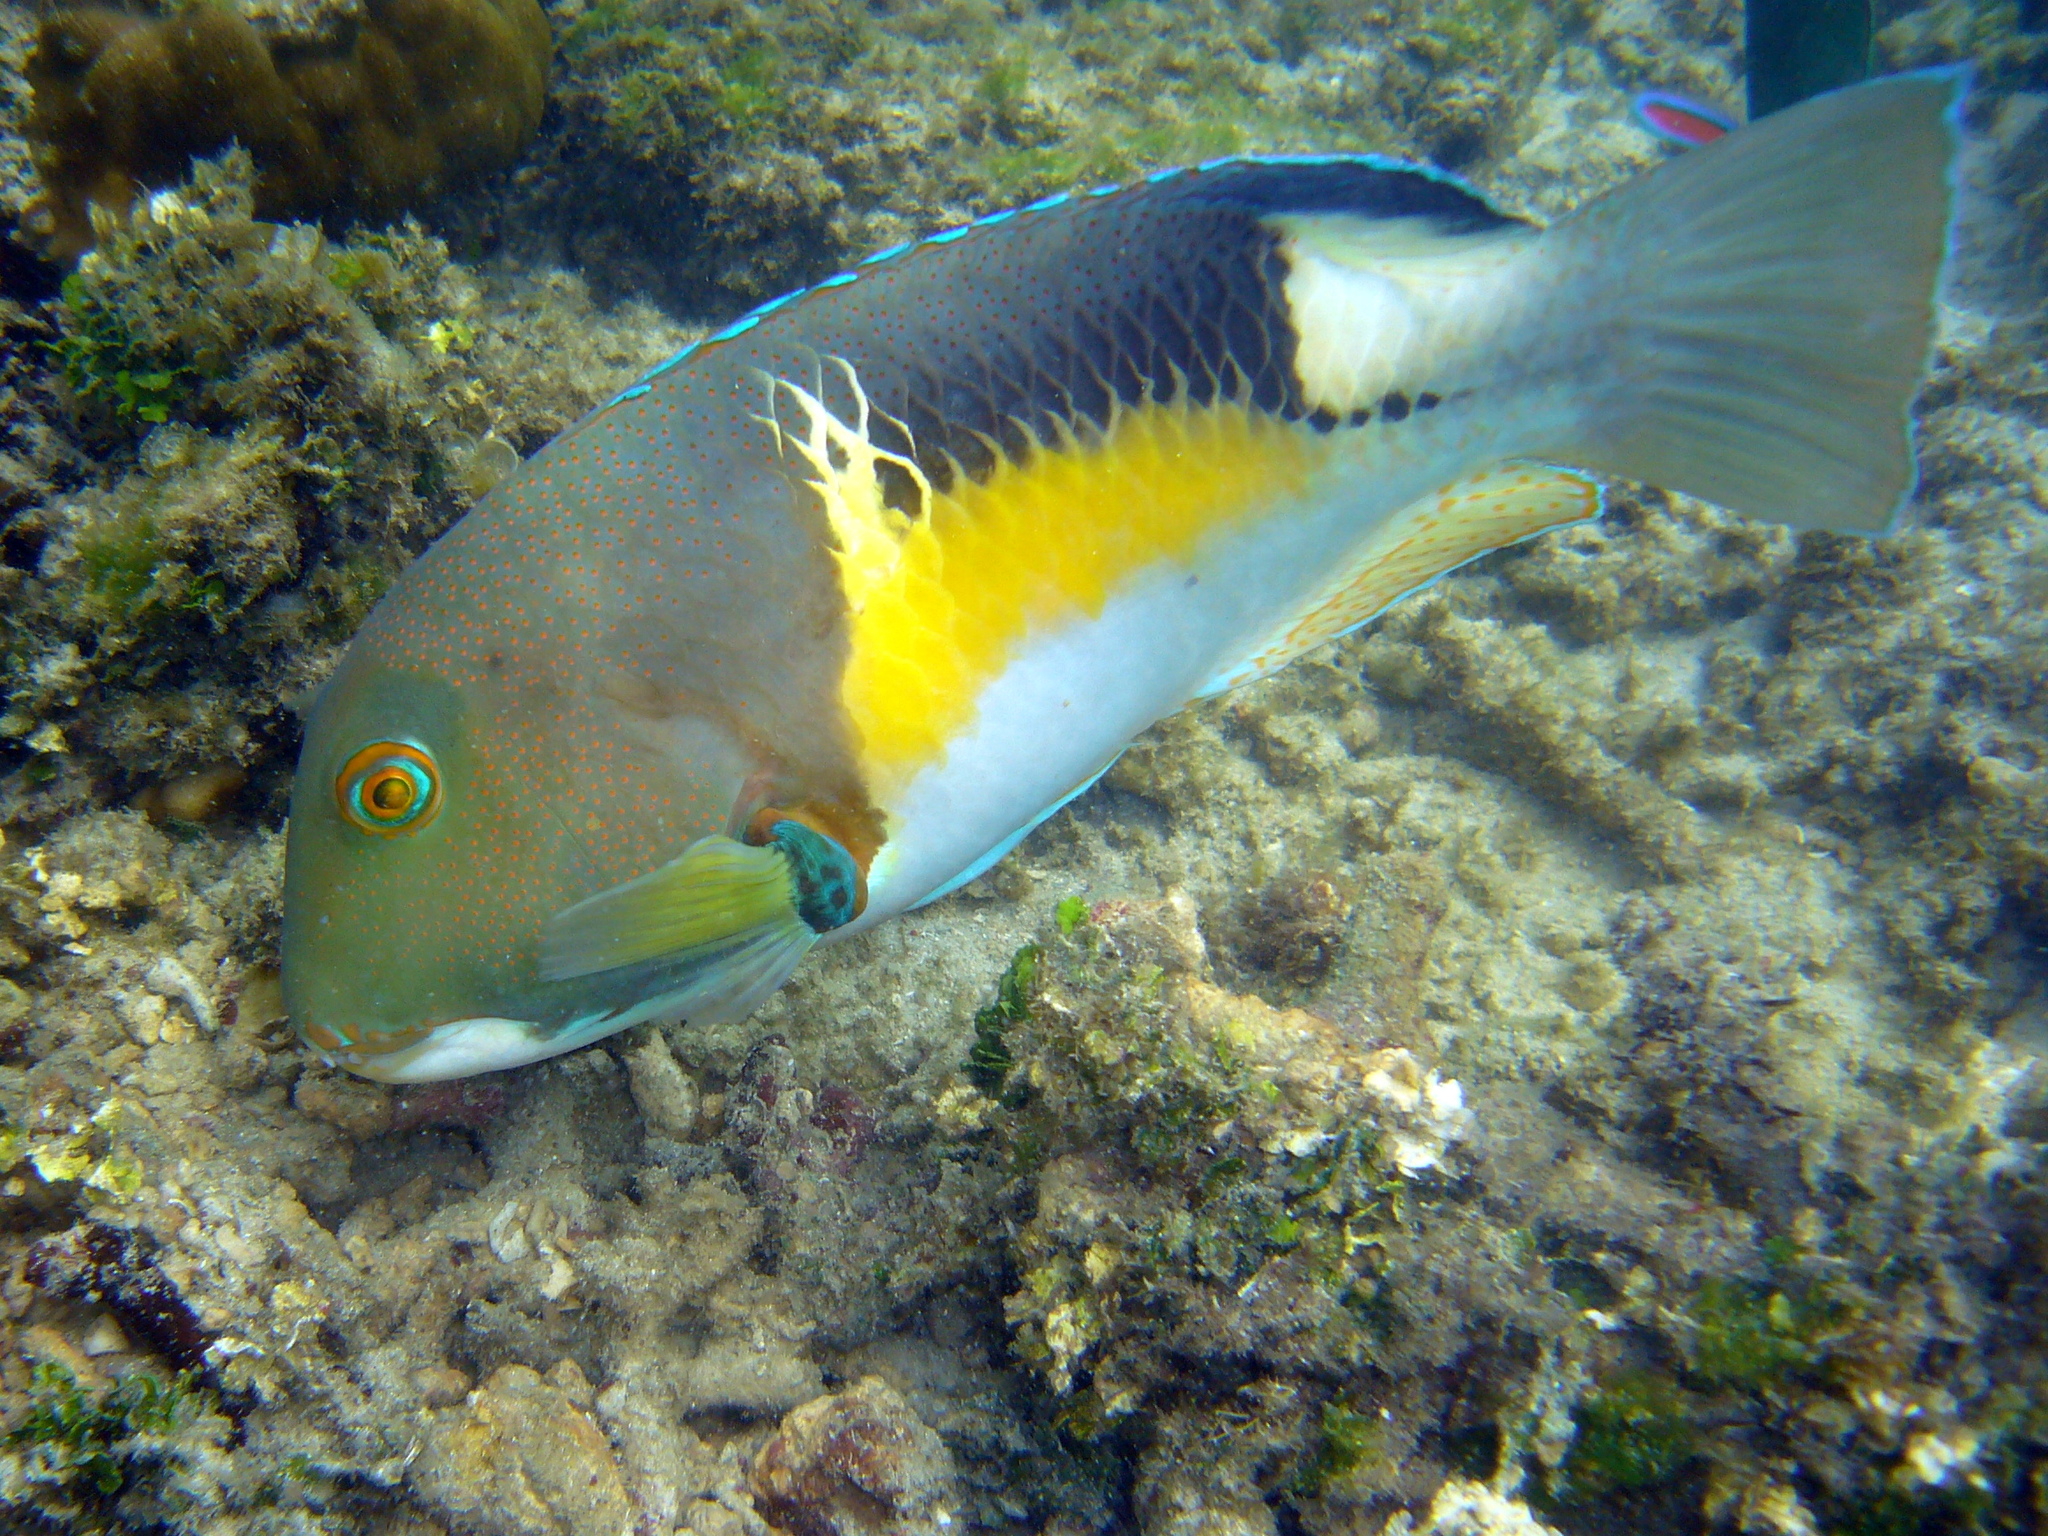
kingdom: Animalia
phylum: Chordata
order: Perciformes
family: Labridae
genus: Choerodon
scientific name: Choerodon anchorago
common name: Anchor tuskfish
